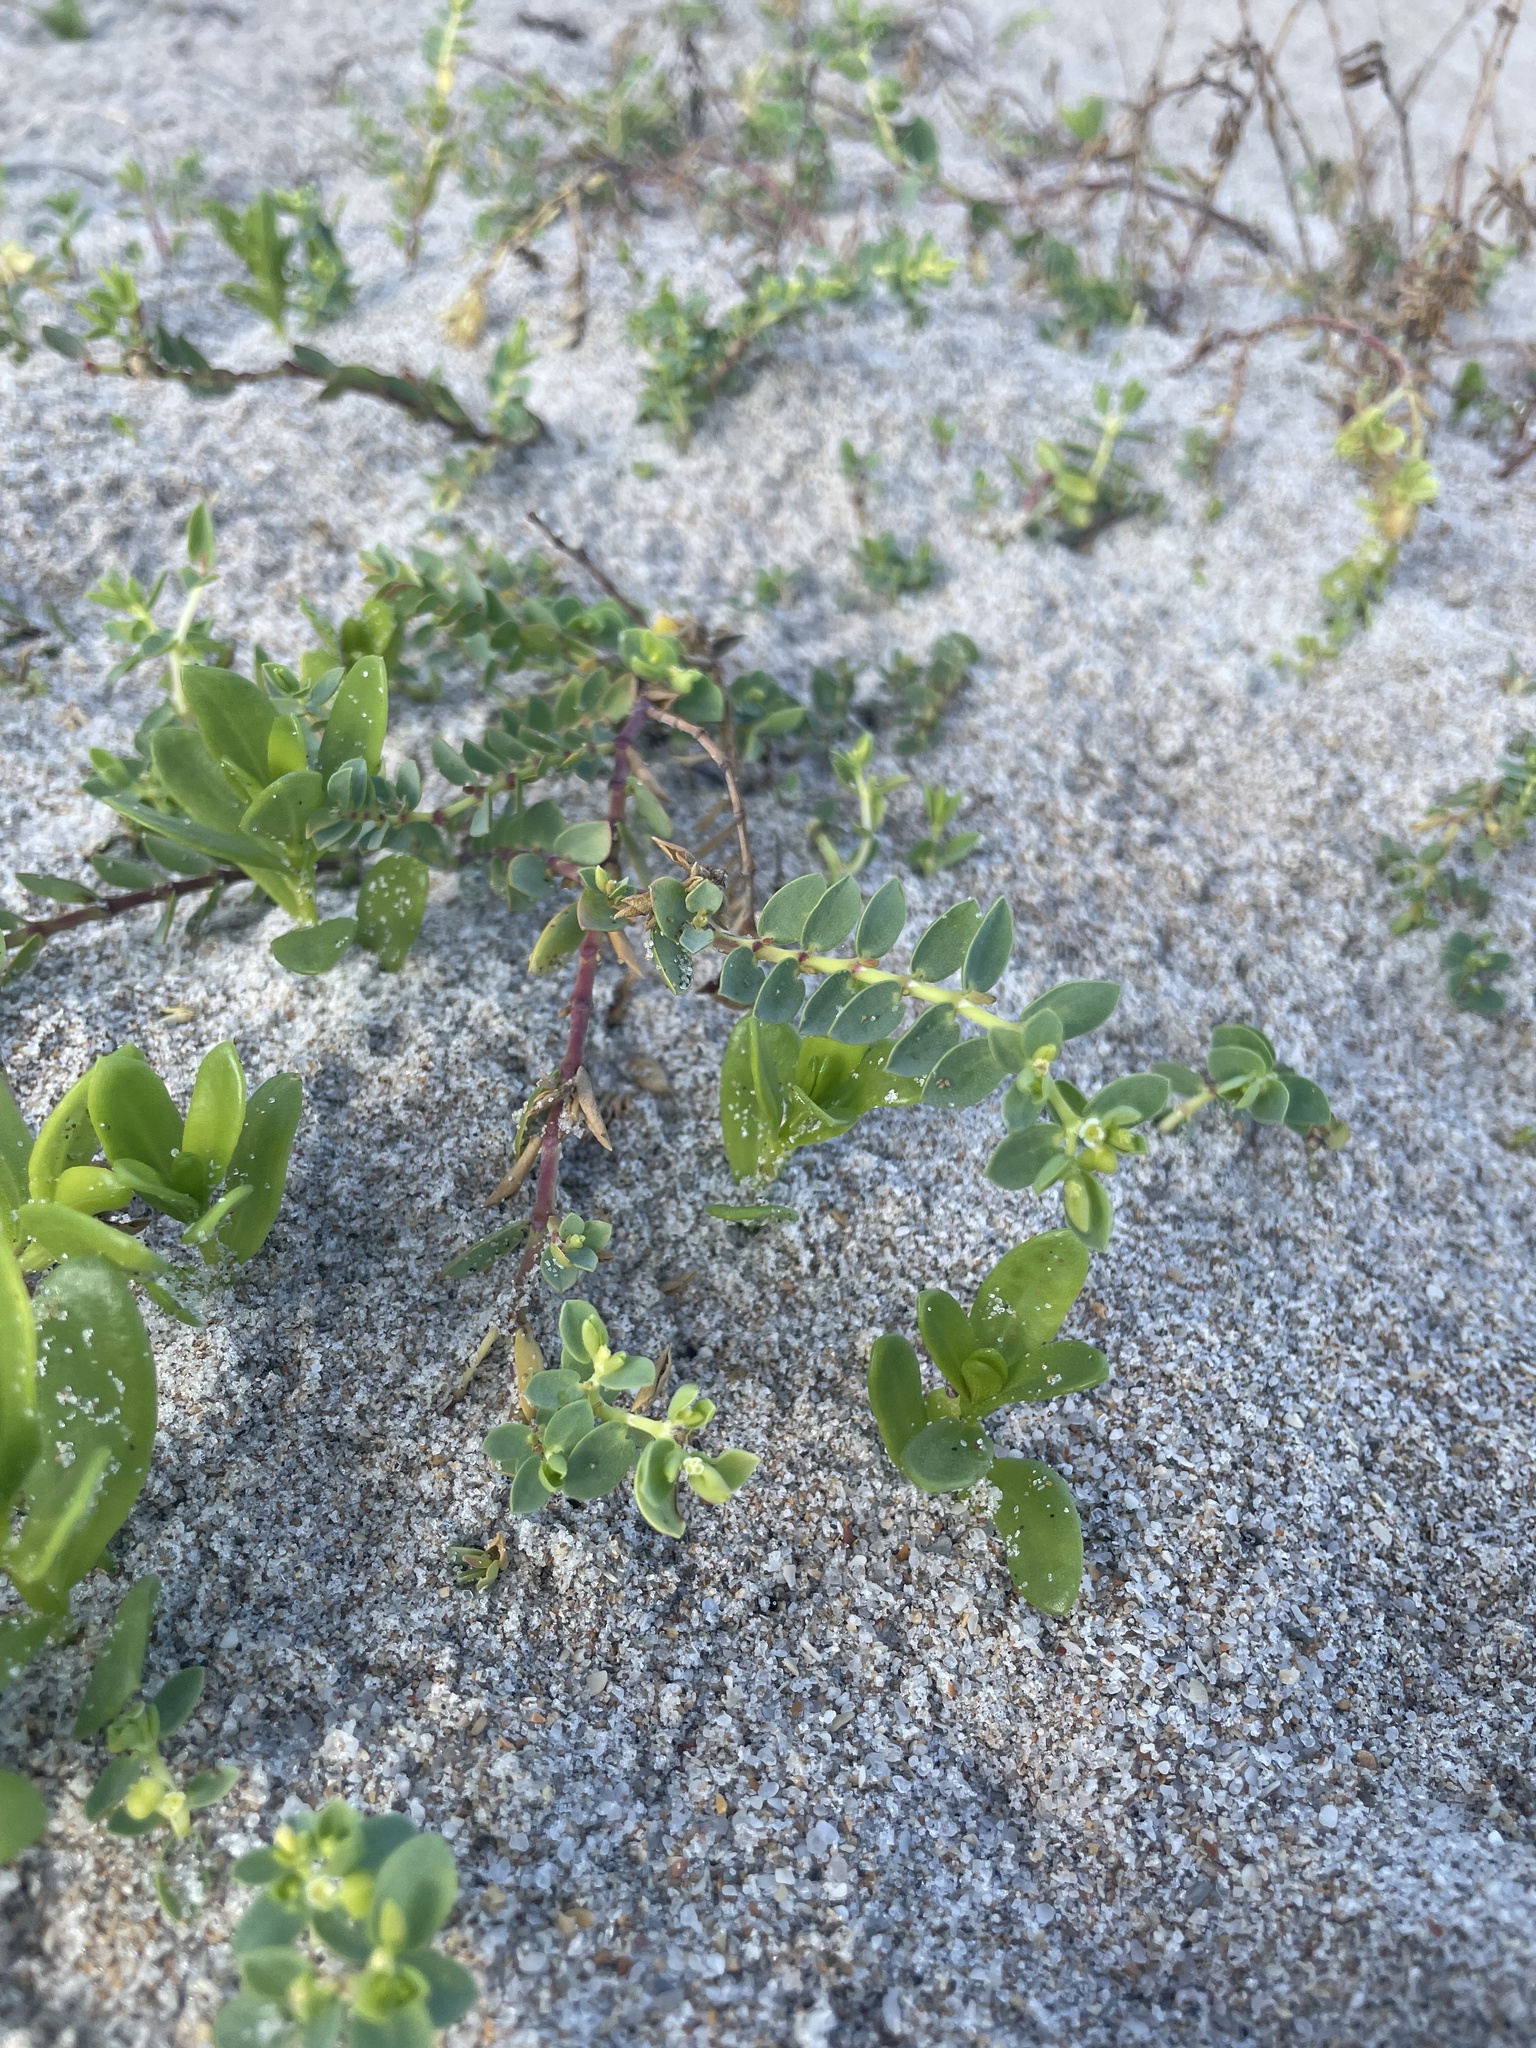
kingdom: Plantae
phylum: Tracheophyta
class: Magnoliopsida
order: Malpighiales
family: Euphorbiaceae
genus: Euphorbia
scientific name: Euphorbia mesembryanthemifolia
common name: Coastal beach sandmat
